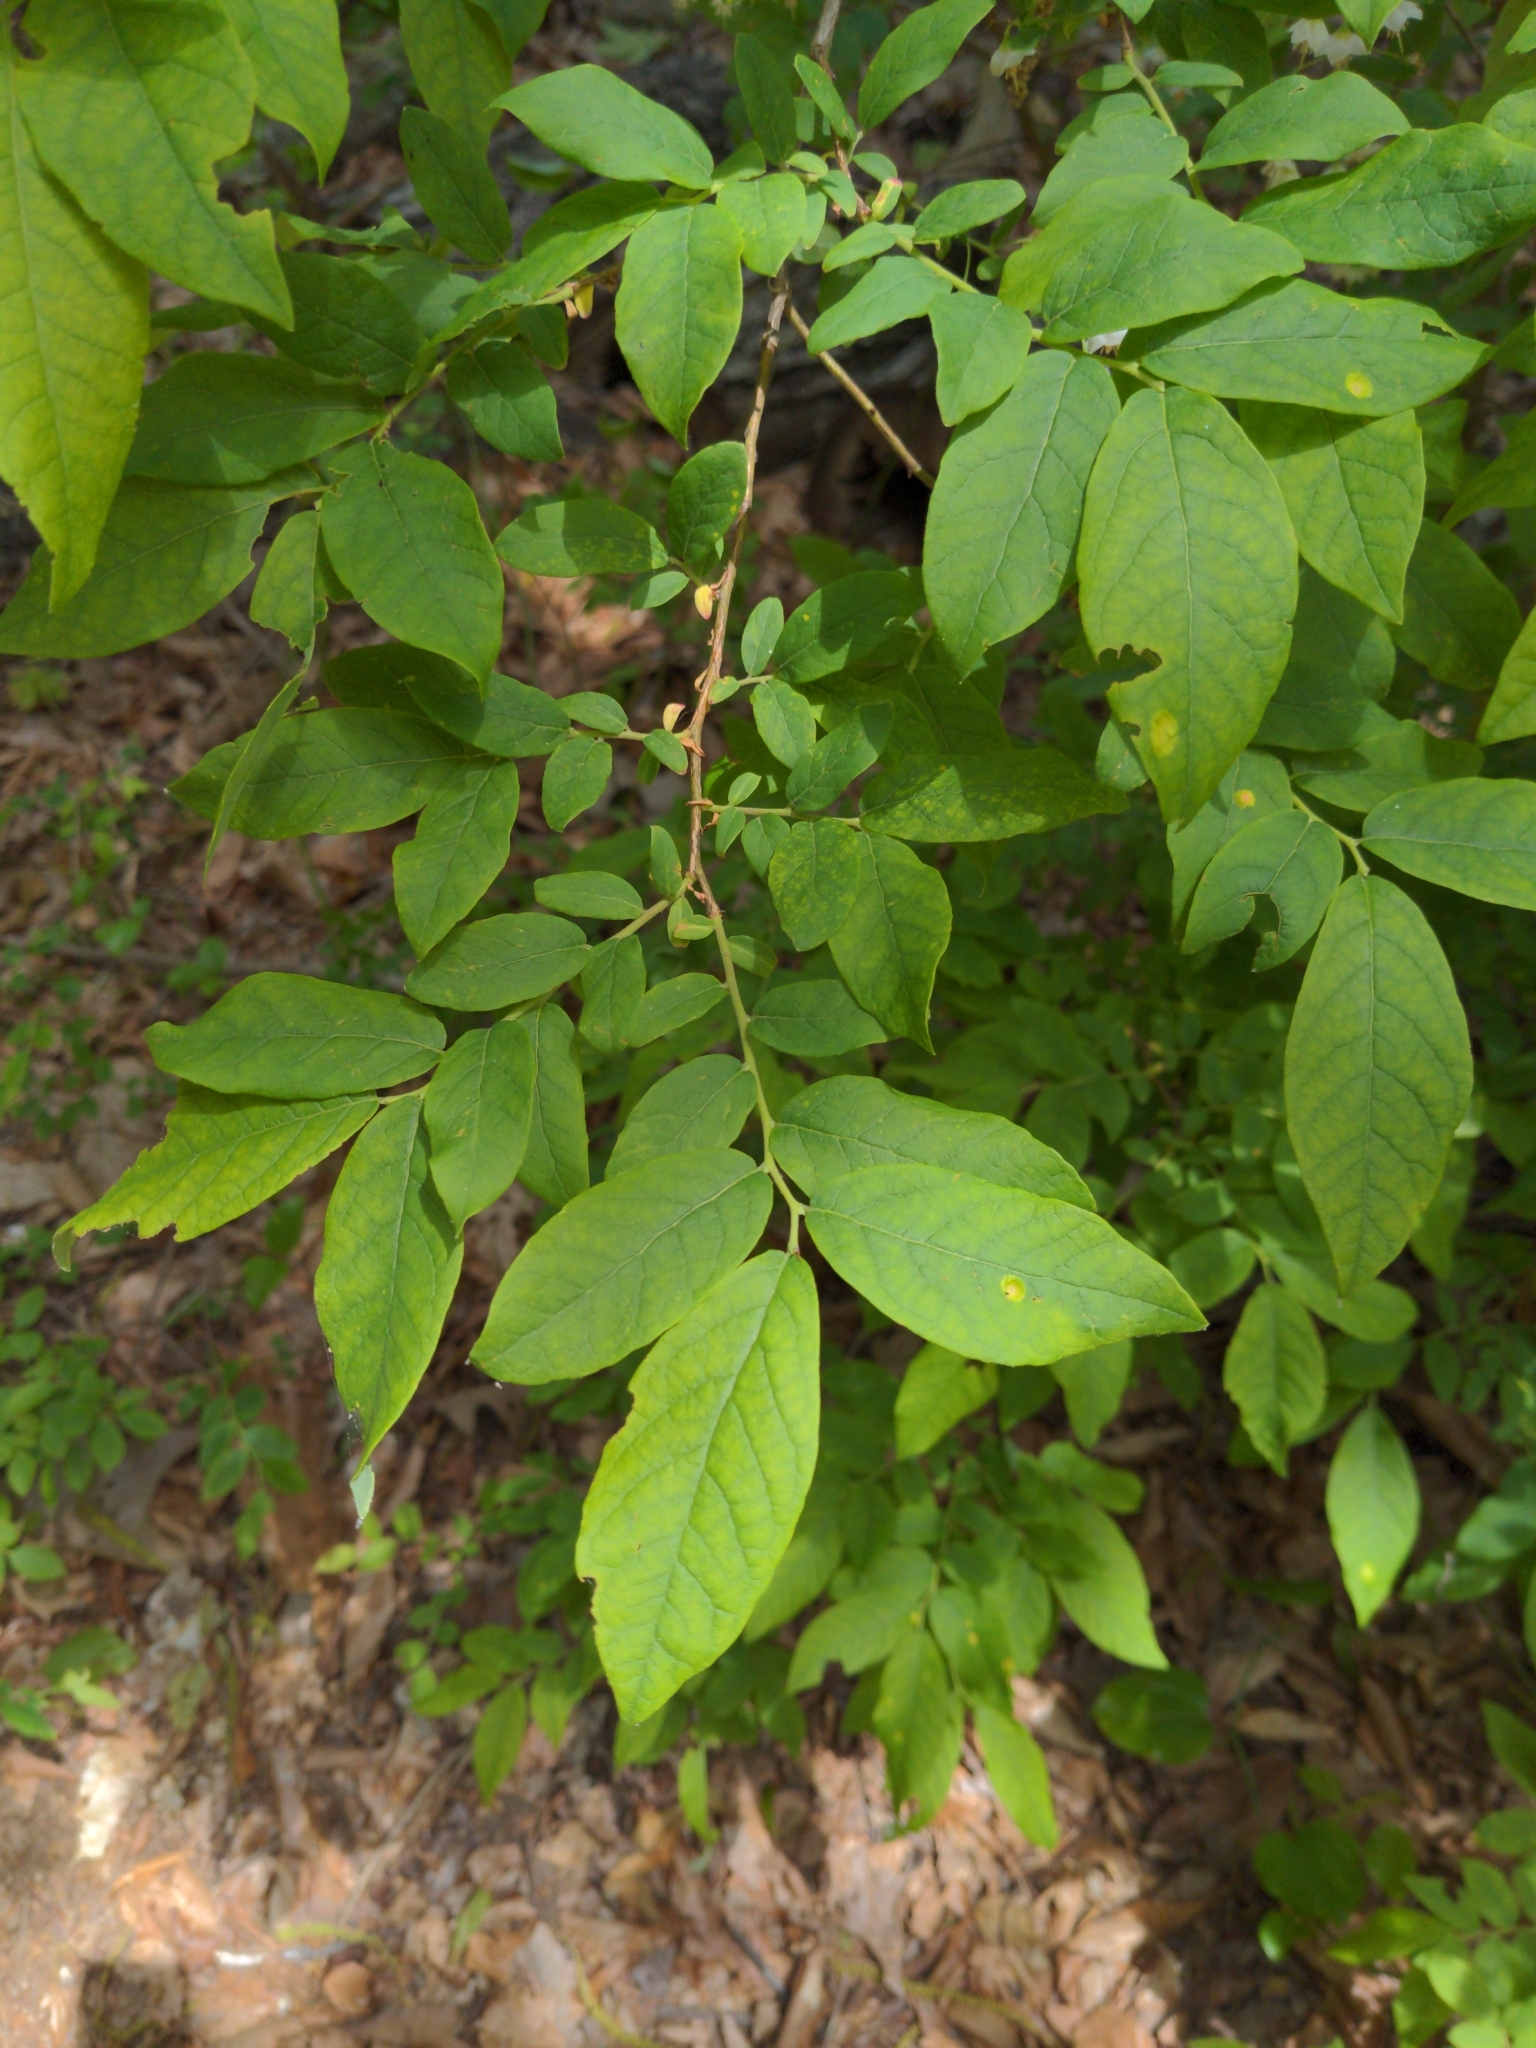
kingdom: Plantae
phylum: Tracheophyta
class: Magnoliopsida
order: Ericales
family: Ericaceae
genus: Vaccinium
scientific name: Vaccinium stamineum
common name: Deerberry
